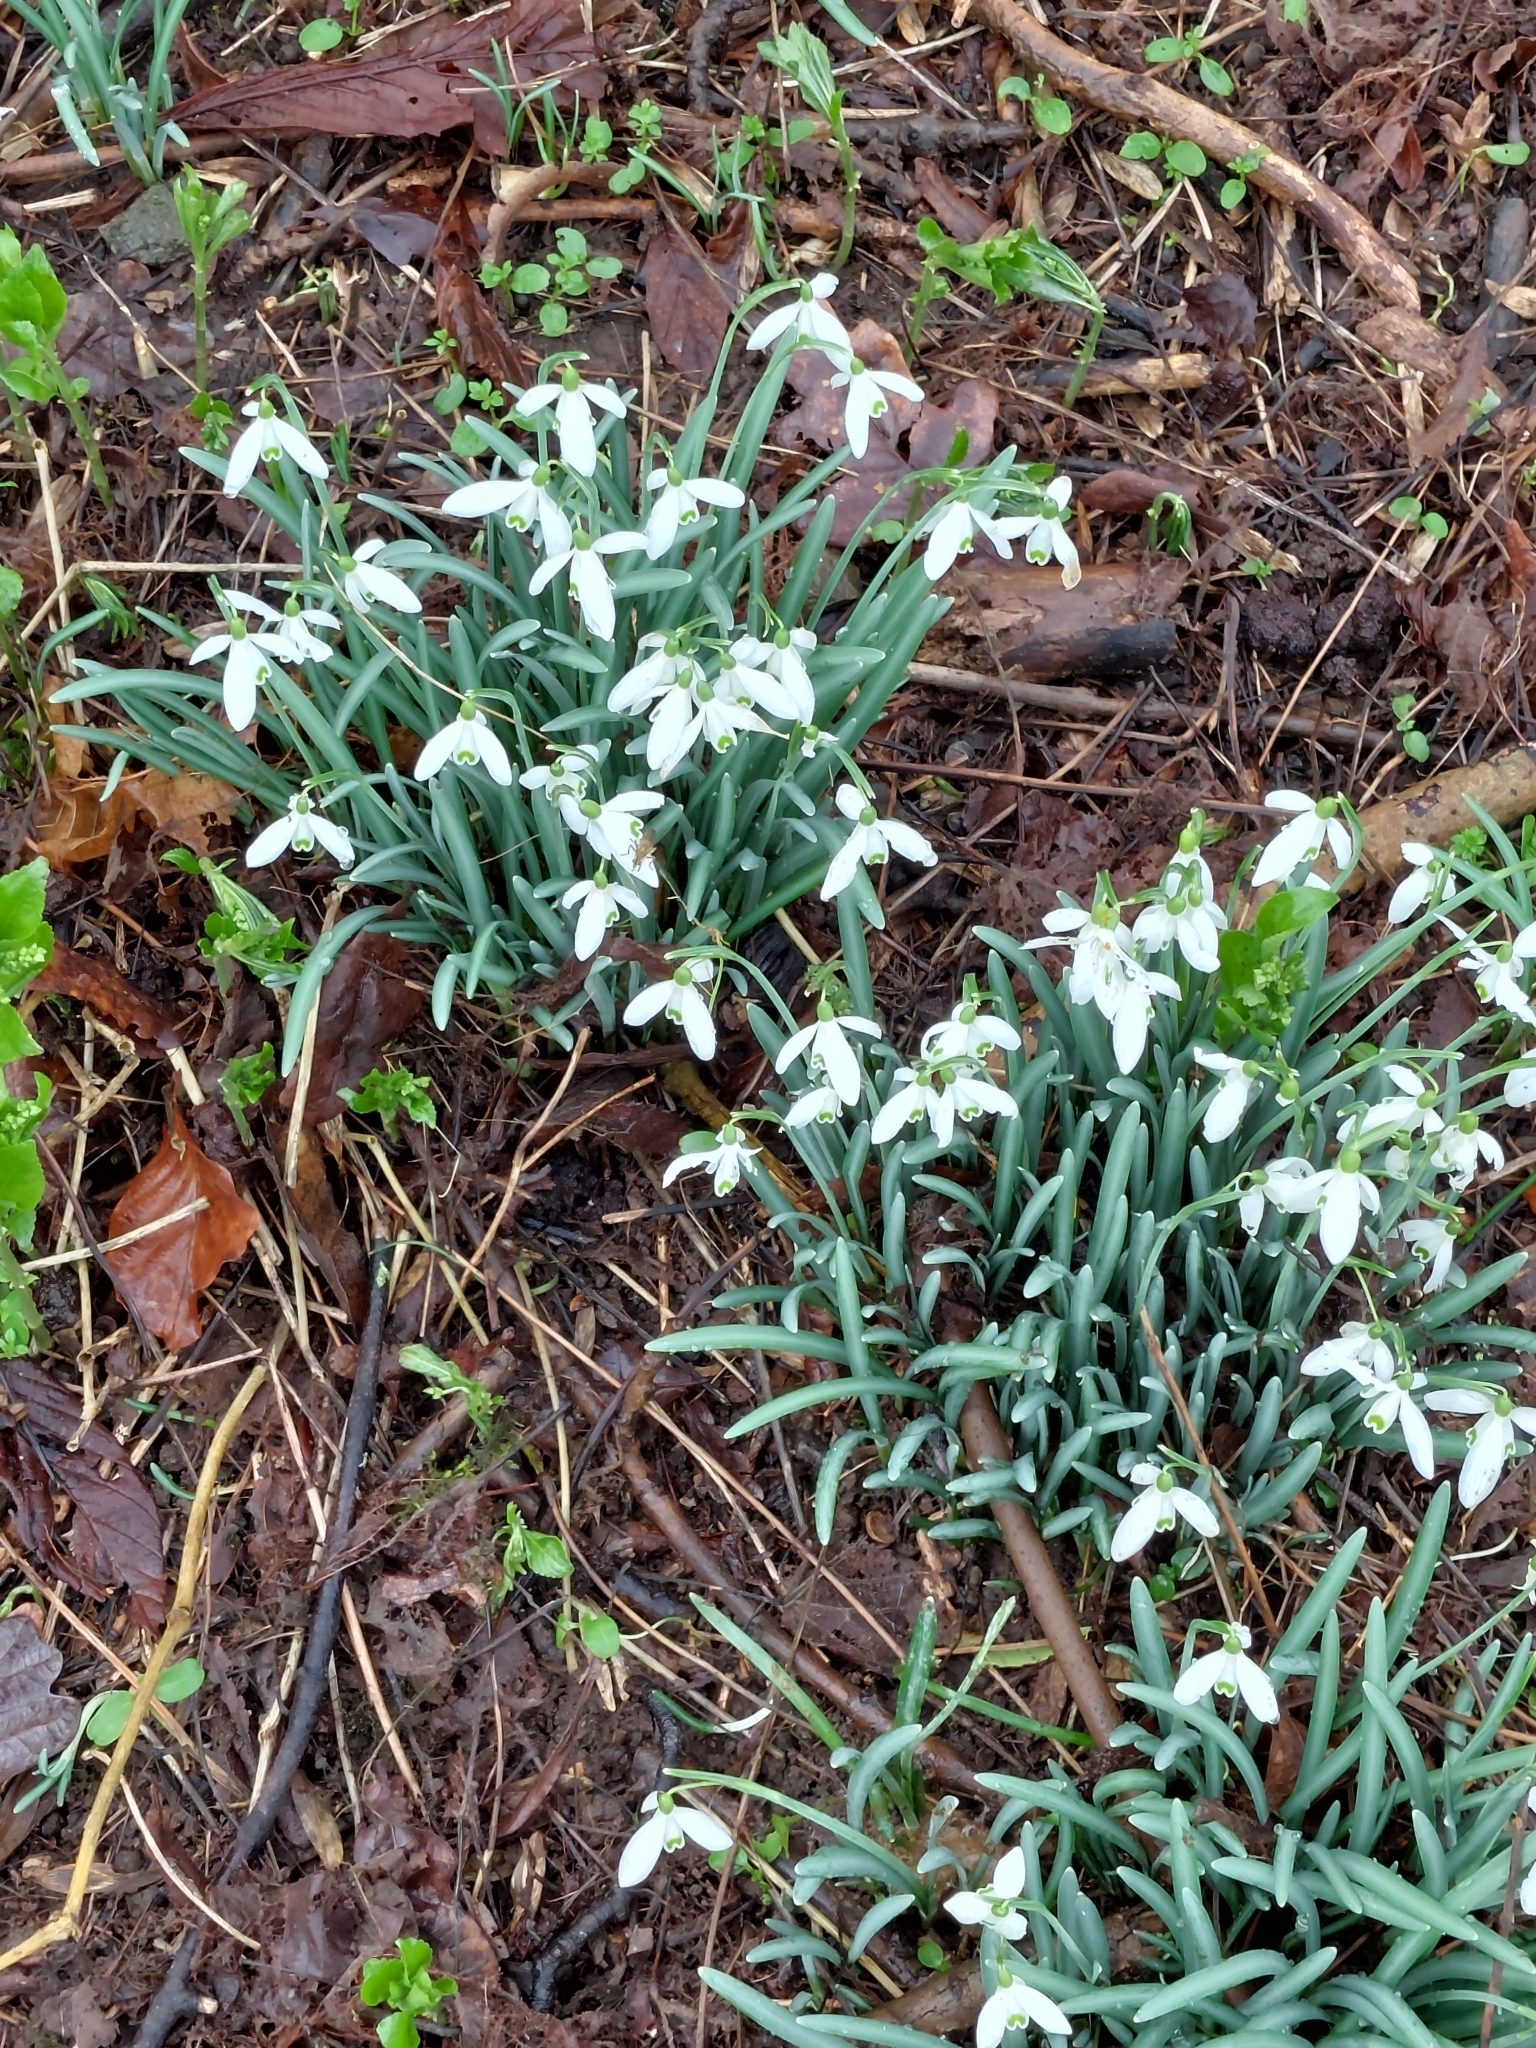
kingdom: Plantae
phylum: Tracheophyta
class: Liliopsida
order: Asparagales
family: Amaryllidaceae
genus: Galanthus
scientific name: Galanthus nivalis
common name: Snowdrop
